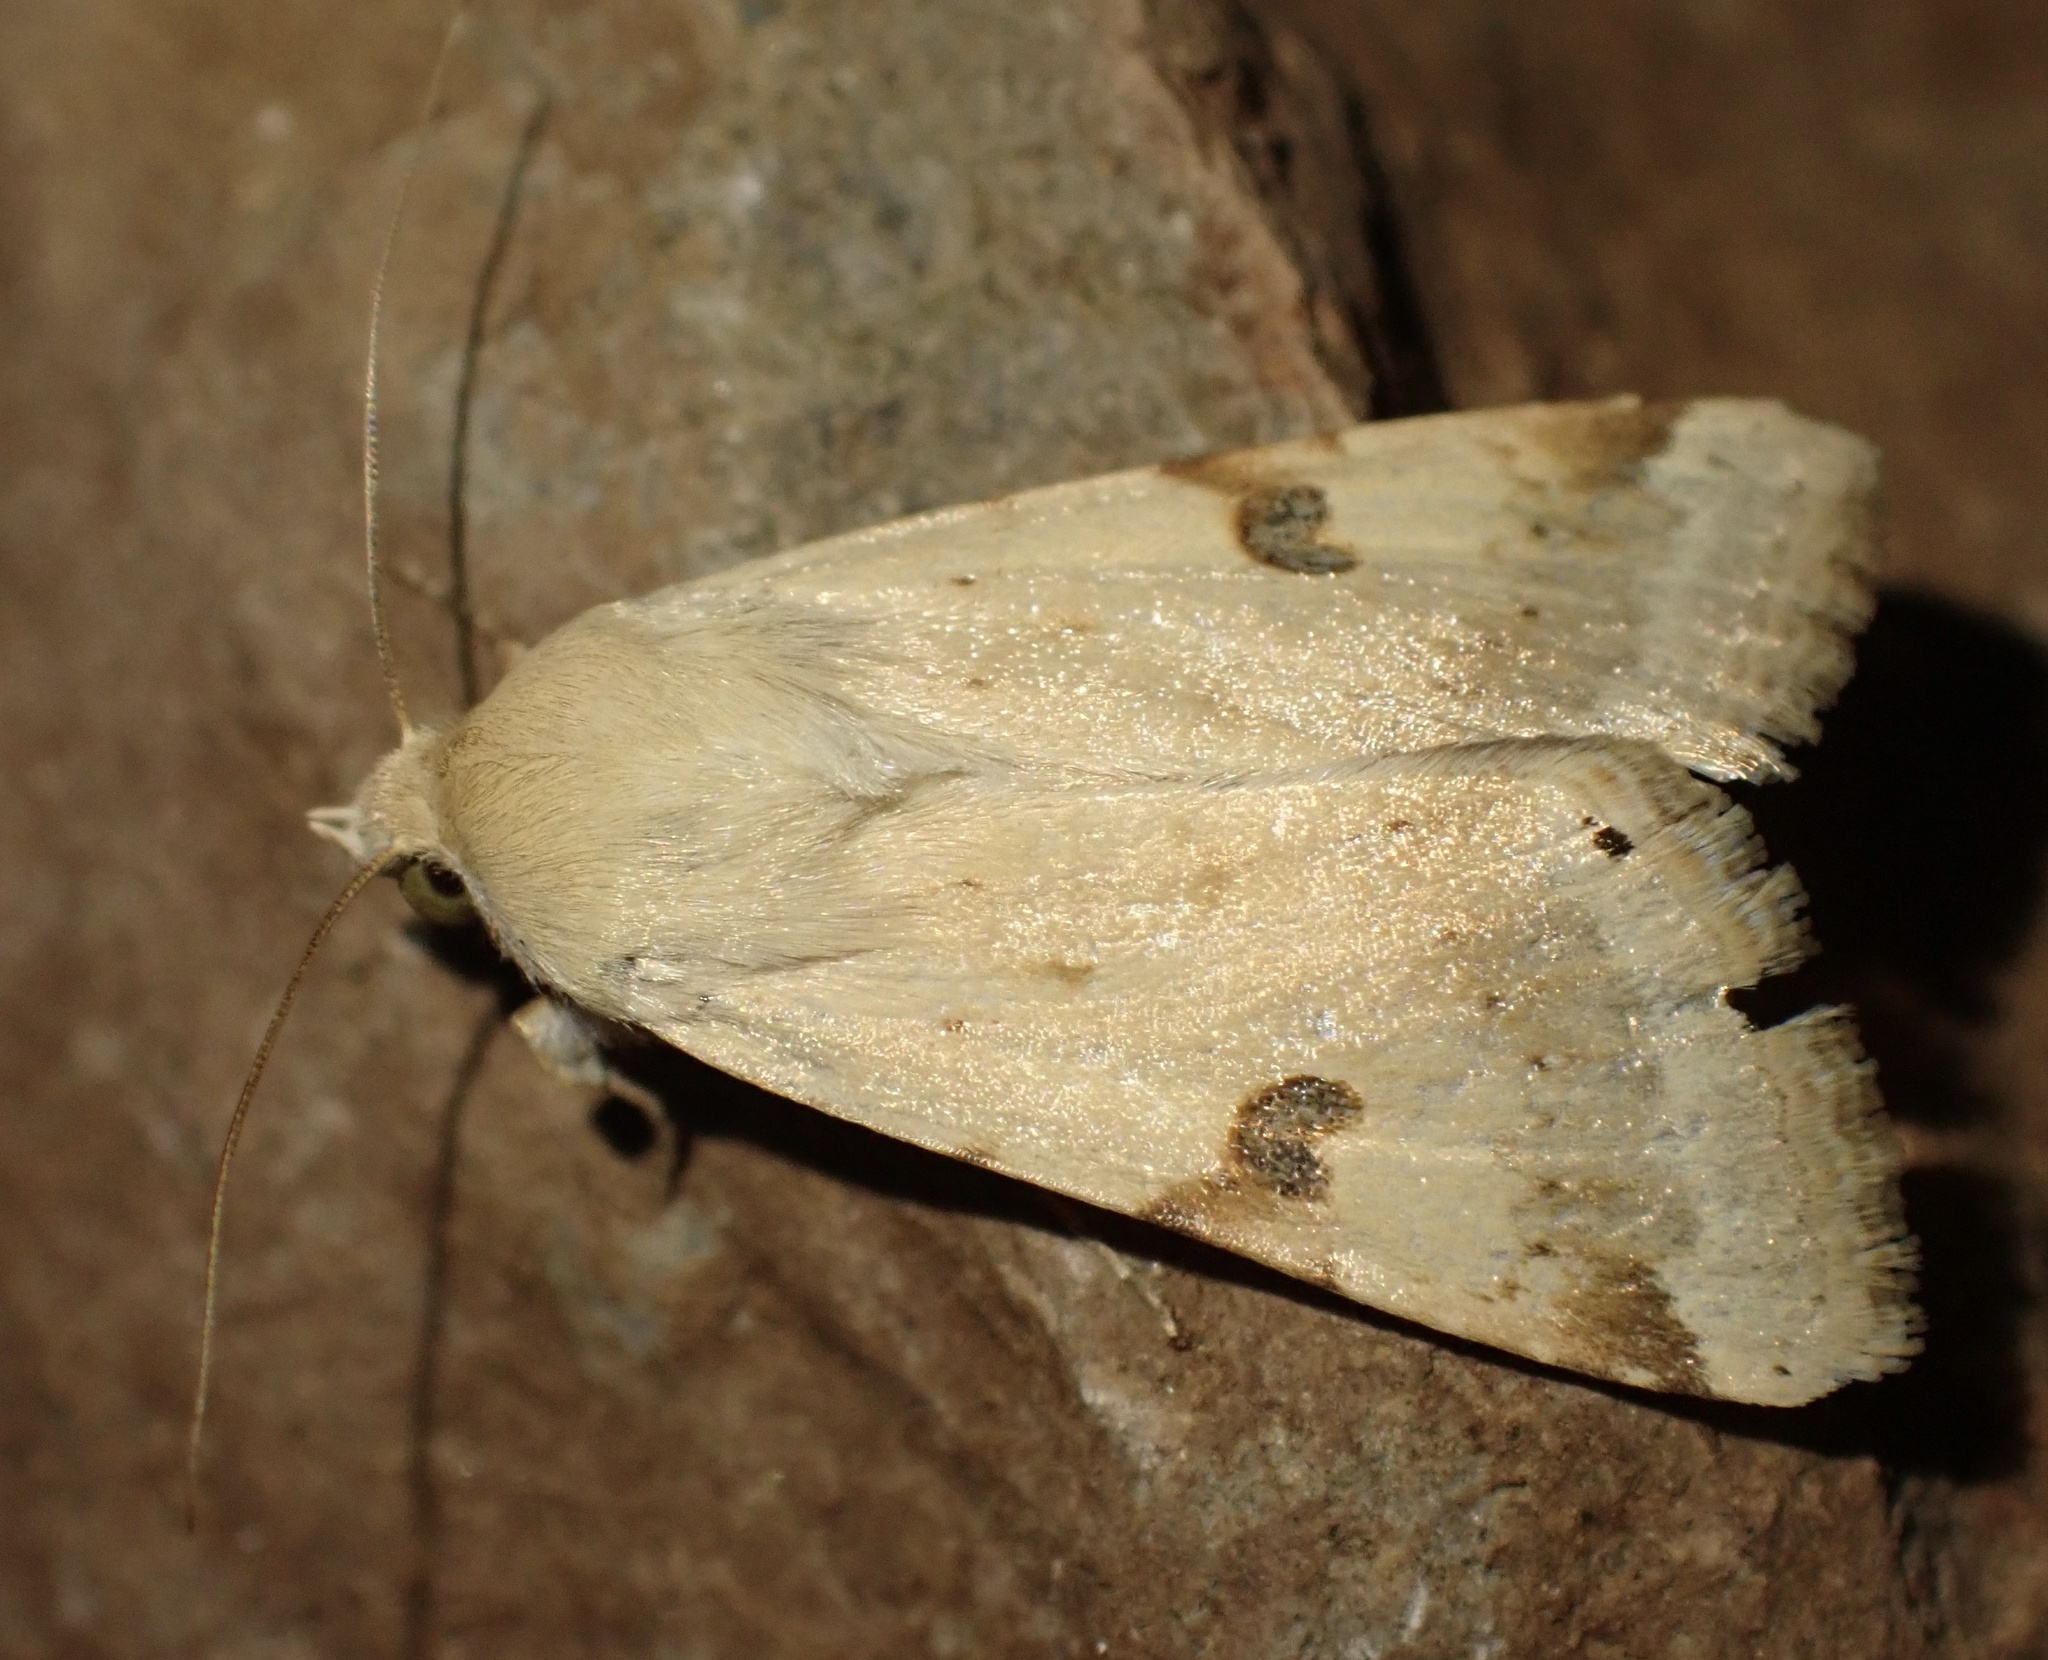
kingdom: Animalia
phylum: Arthropoda
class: Insecta
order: Lepidoptera
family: Noctuidae
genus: Heliothis
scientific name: Heliothis peltigera
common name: Bordered straw
